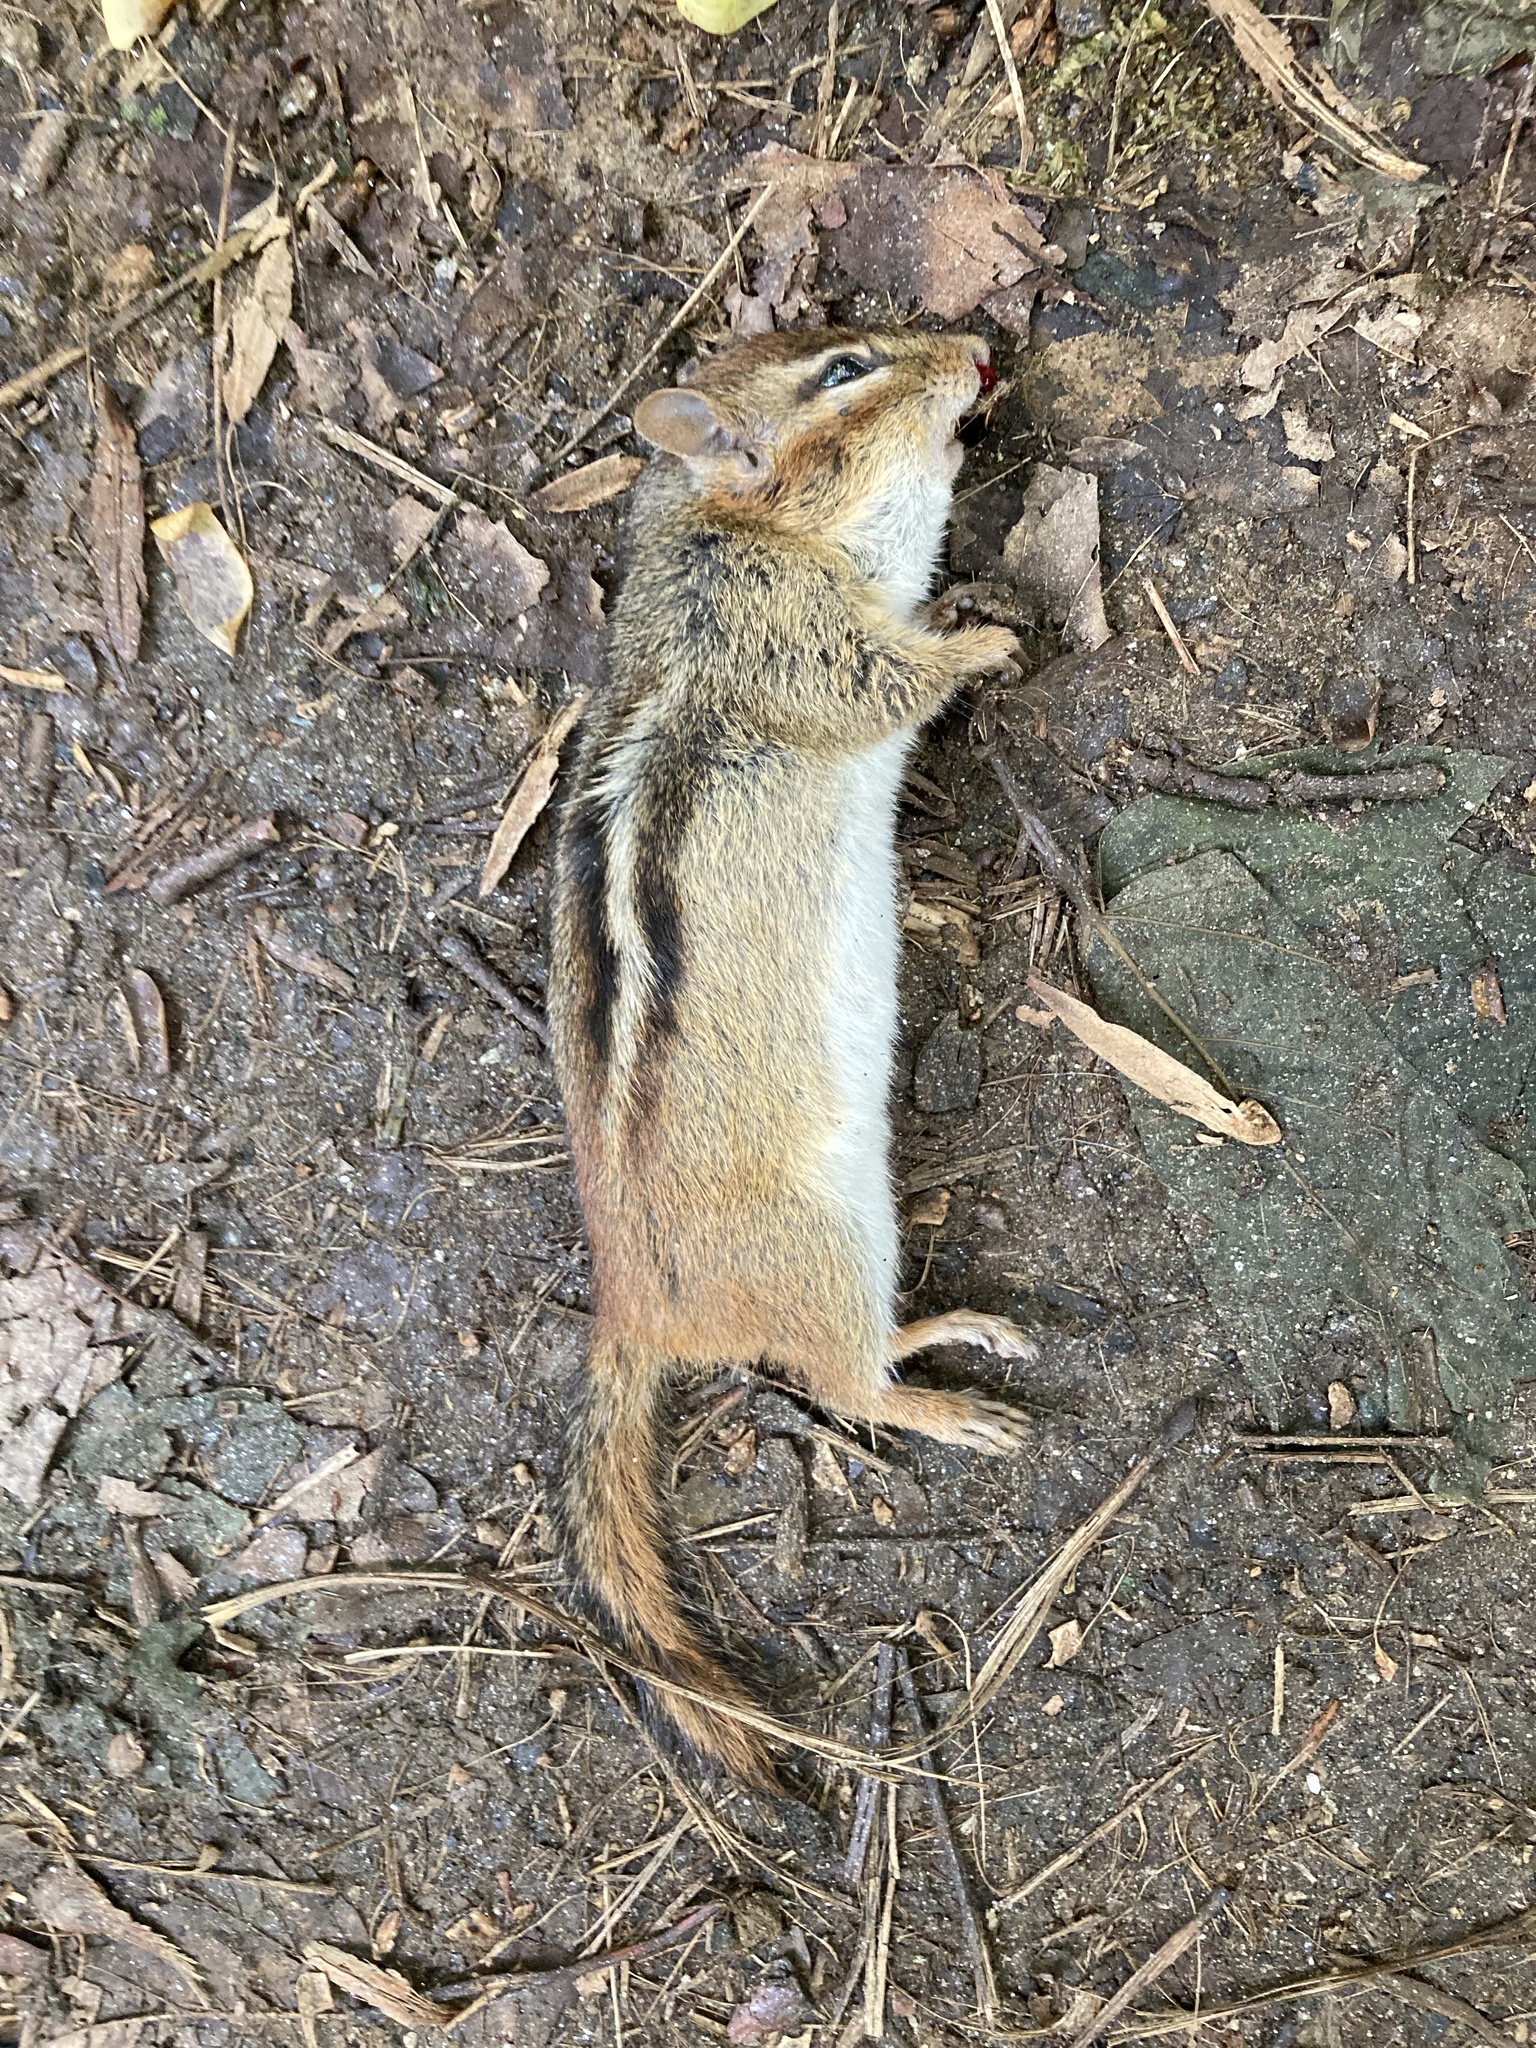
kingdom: Animalia
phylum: Chordata
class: Mammalia
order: Rodentia
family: Sciuridae
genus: Tamias
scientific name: Tamias striatus
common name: Eastern chipmunk
